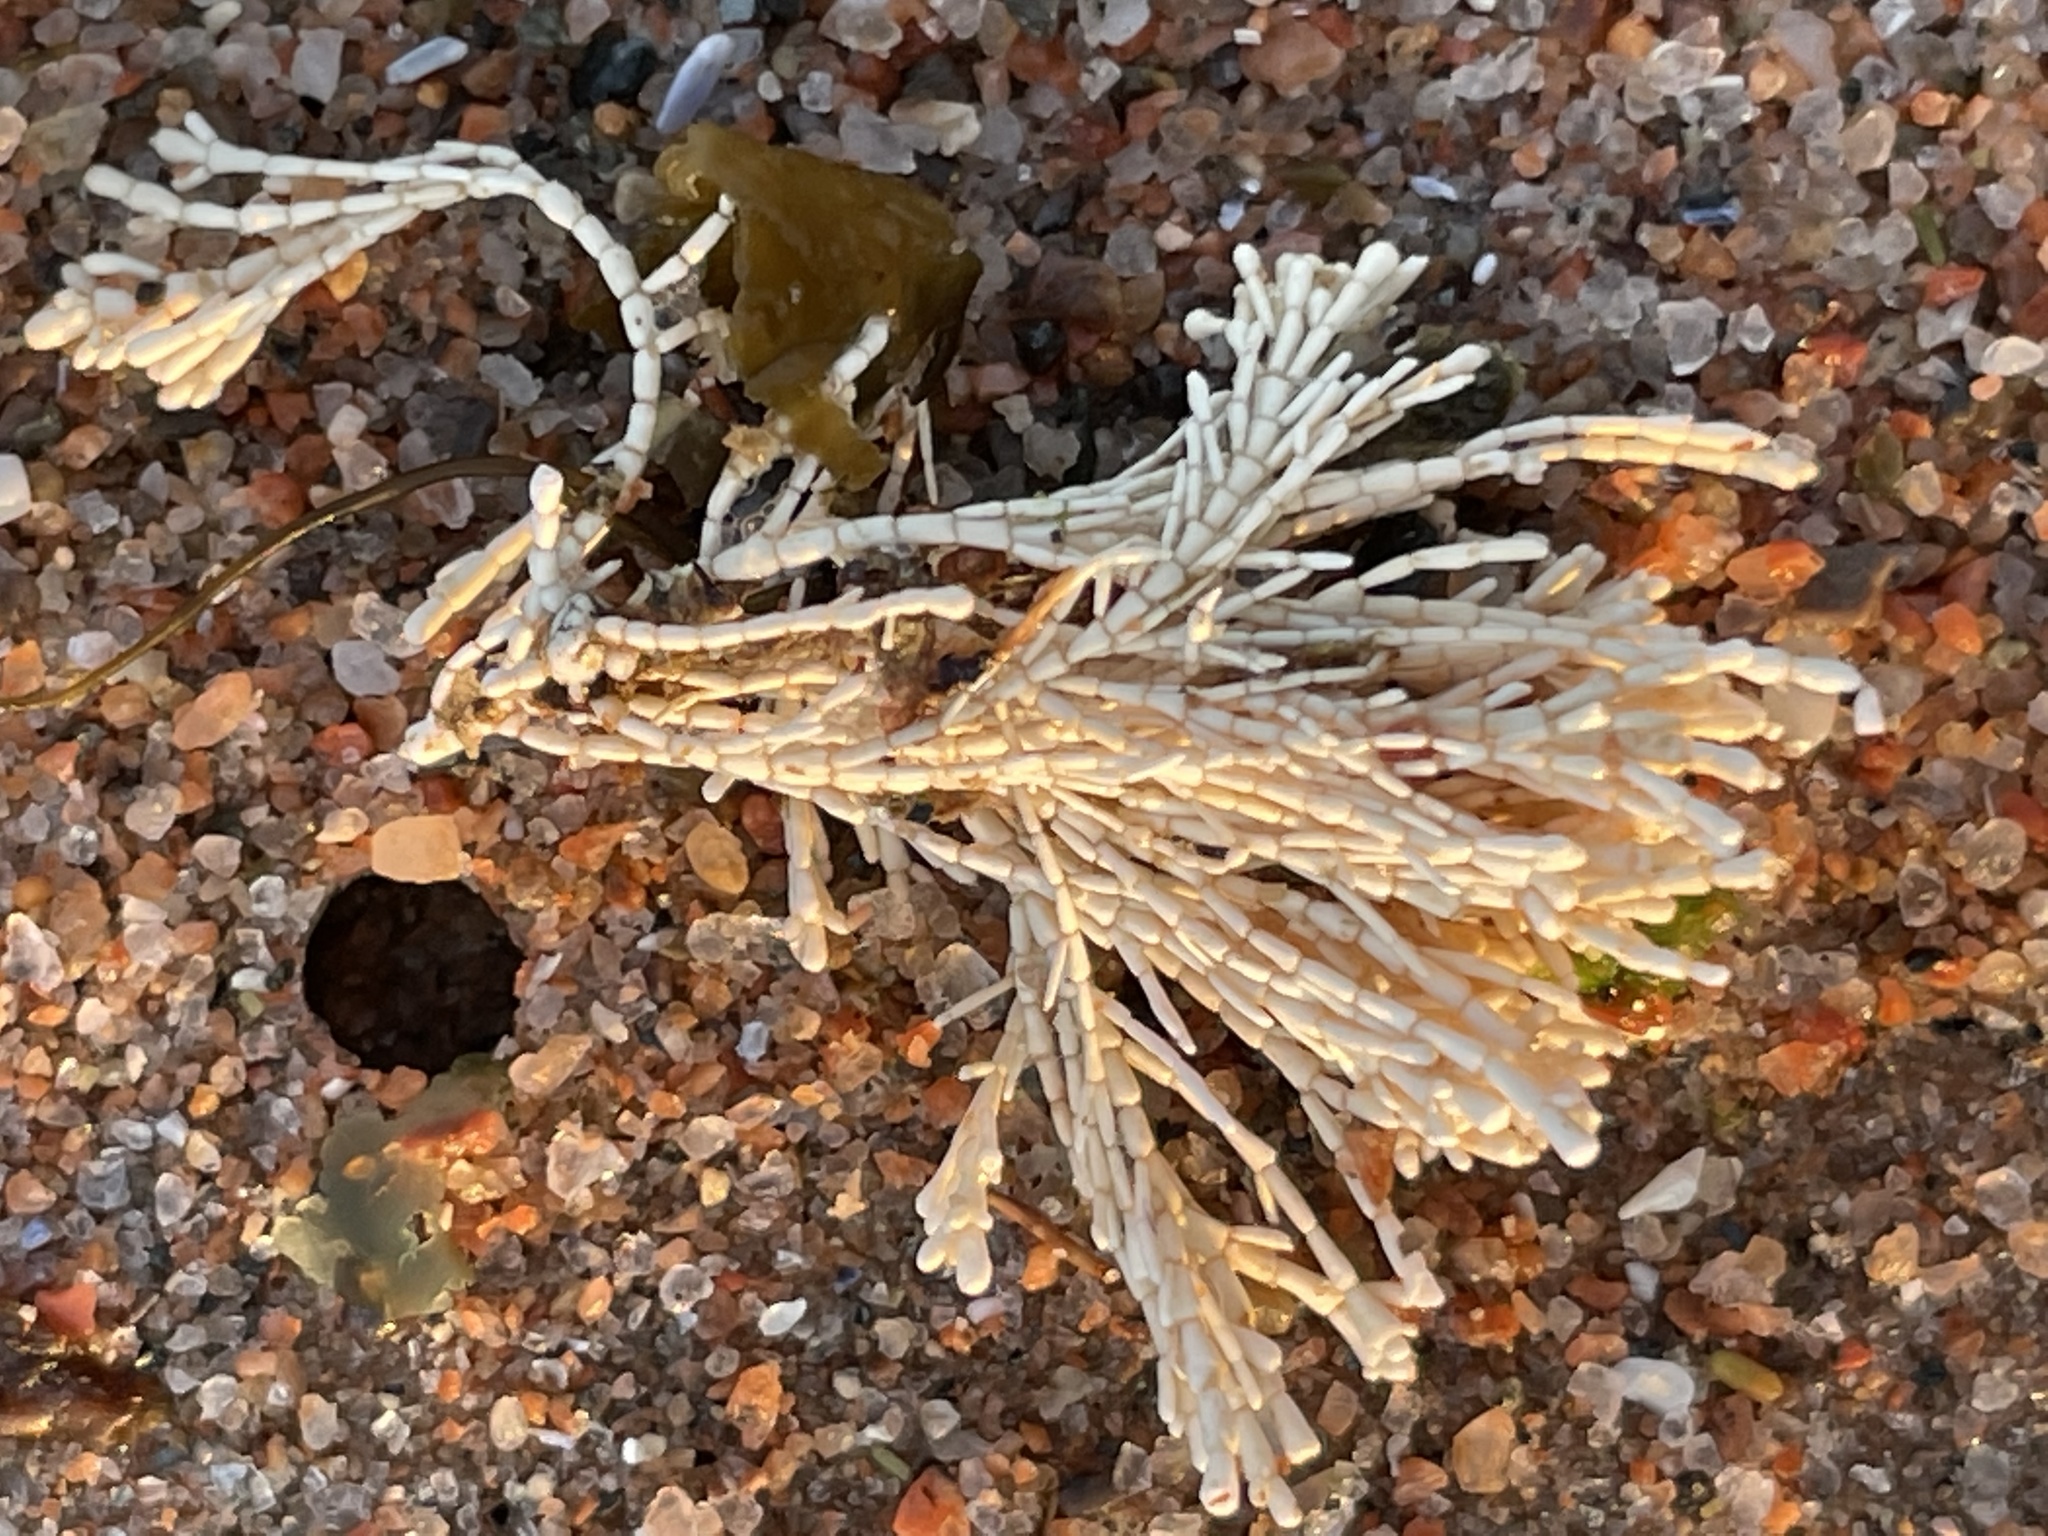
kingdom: Plantae
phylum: Rhodophyta
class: Florideophyceae
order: Corallinales
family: Corallinaceae
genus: Corallina
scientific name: Corallina officinalis
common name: Coral weed
